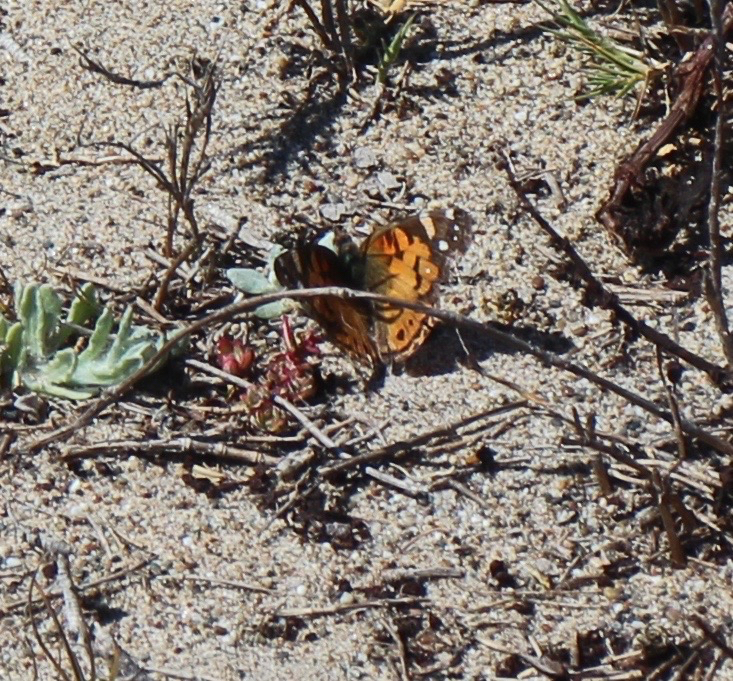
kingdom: Animalia
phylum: Arthropoda
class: Insecta
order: Lepidoptera
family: Nymphalidae
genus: Vanessa
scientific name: Vanessa virginiensis
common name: American lady
